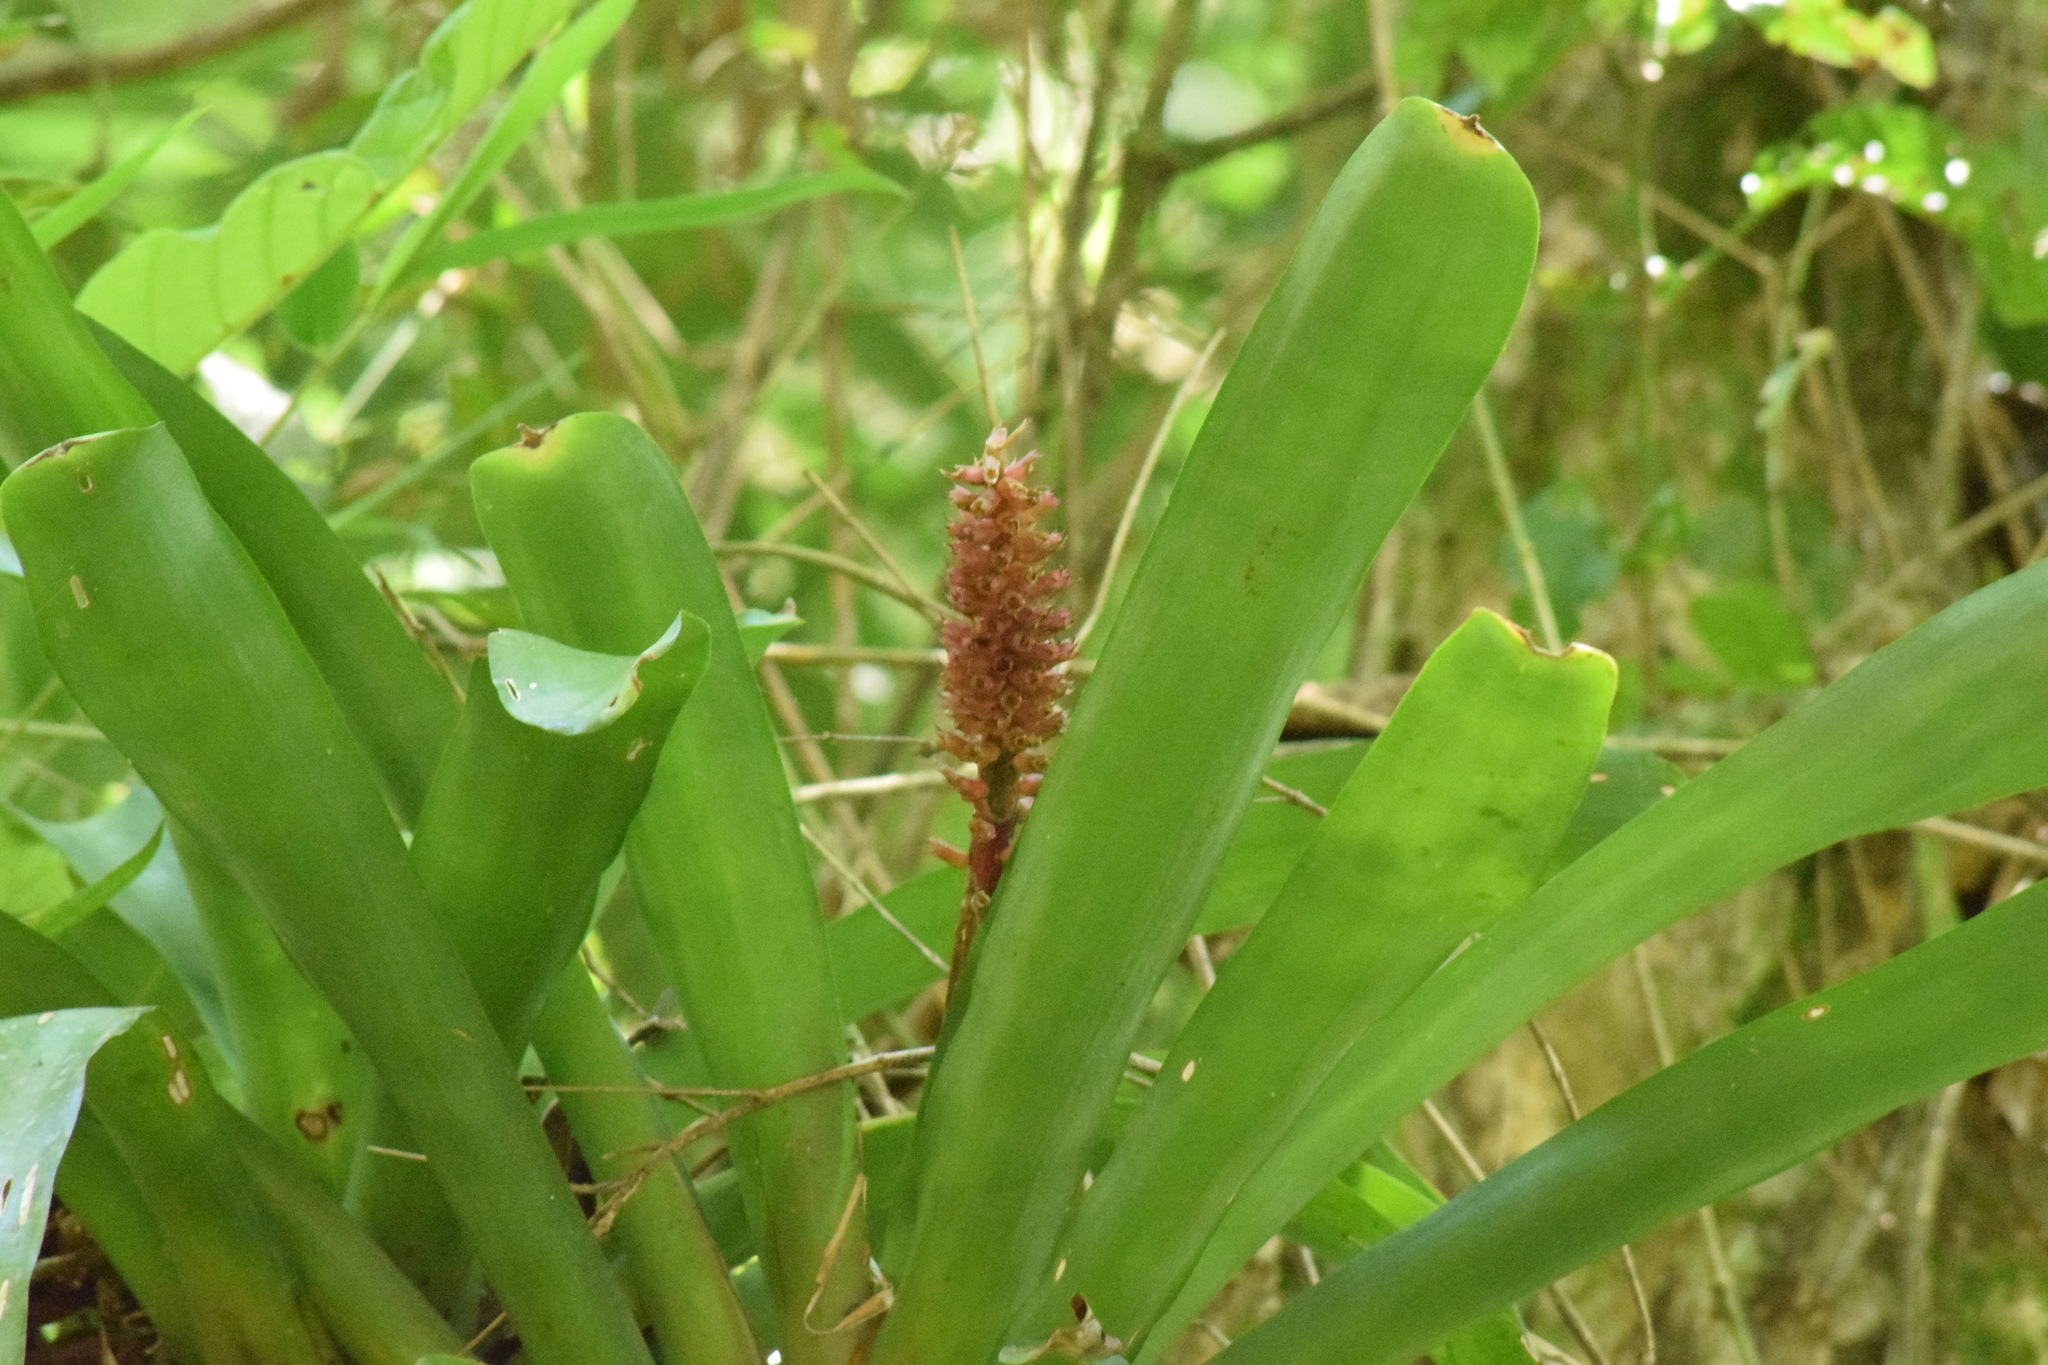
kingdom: Plantae
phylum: Tracheophyta
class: Liliopsida
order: Poales
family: Bromeliaceae
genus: Aechmea
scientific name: Aechmea cylindrata
